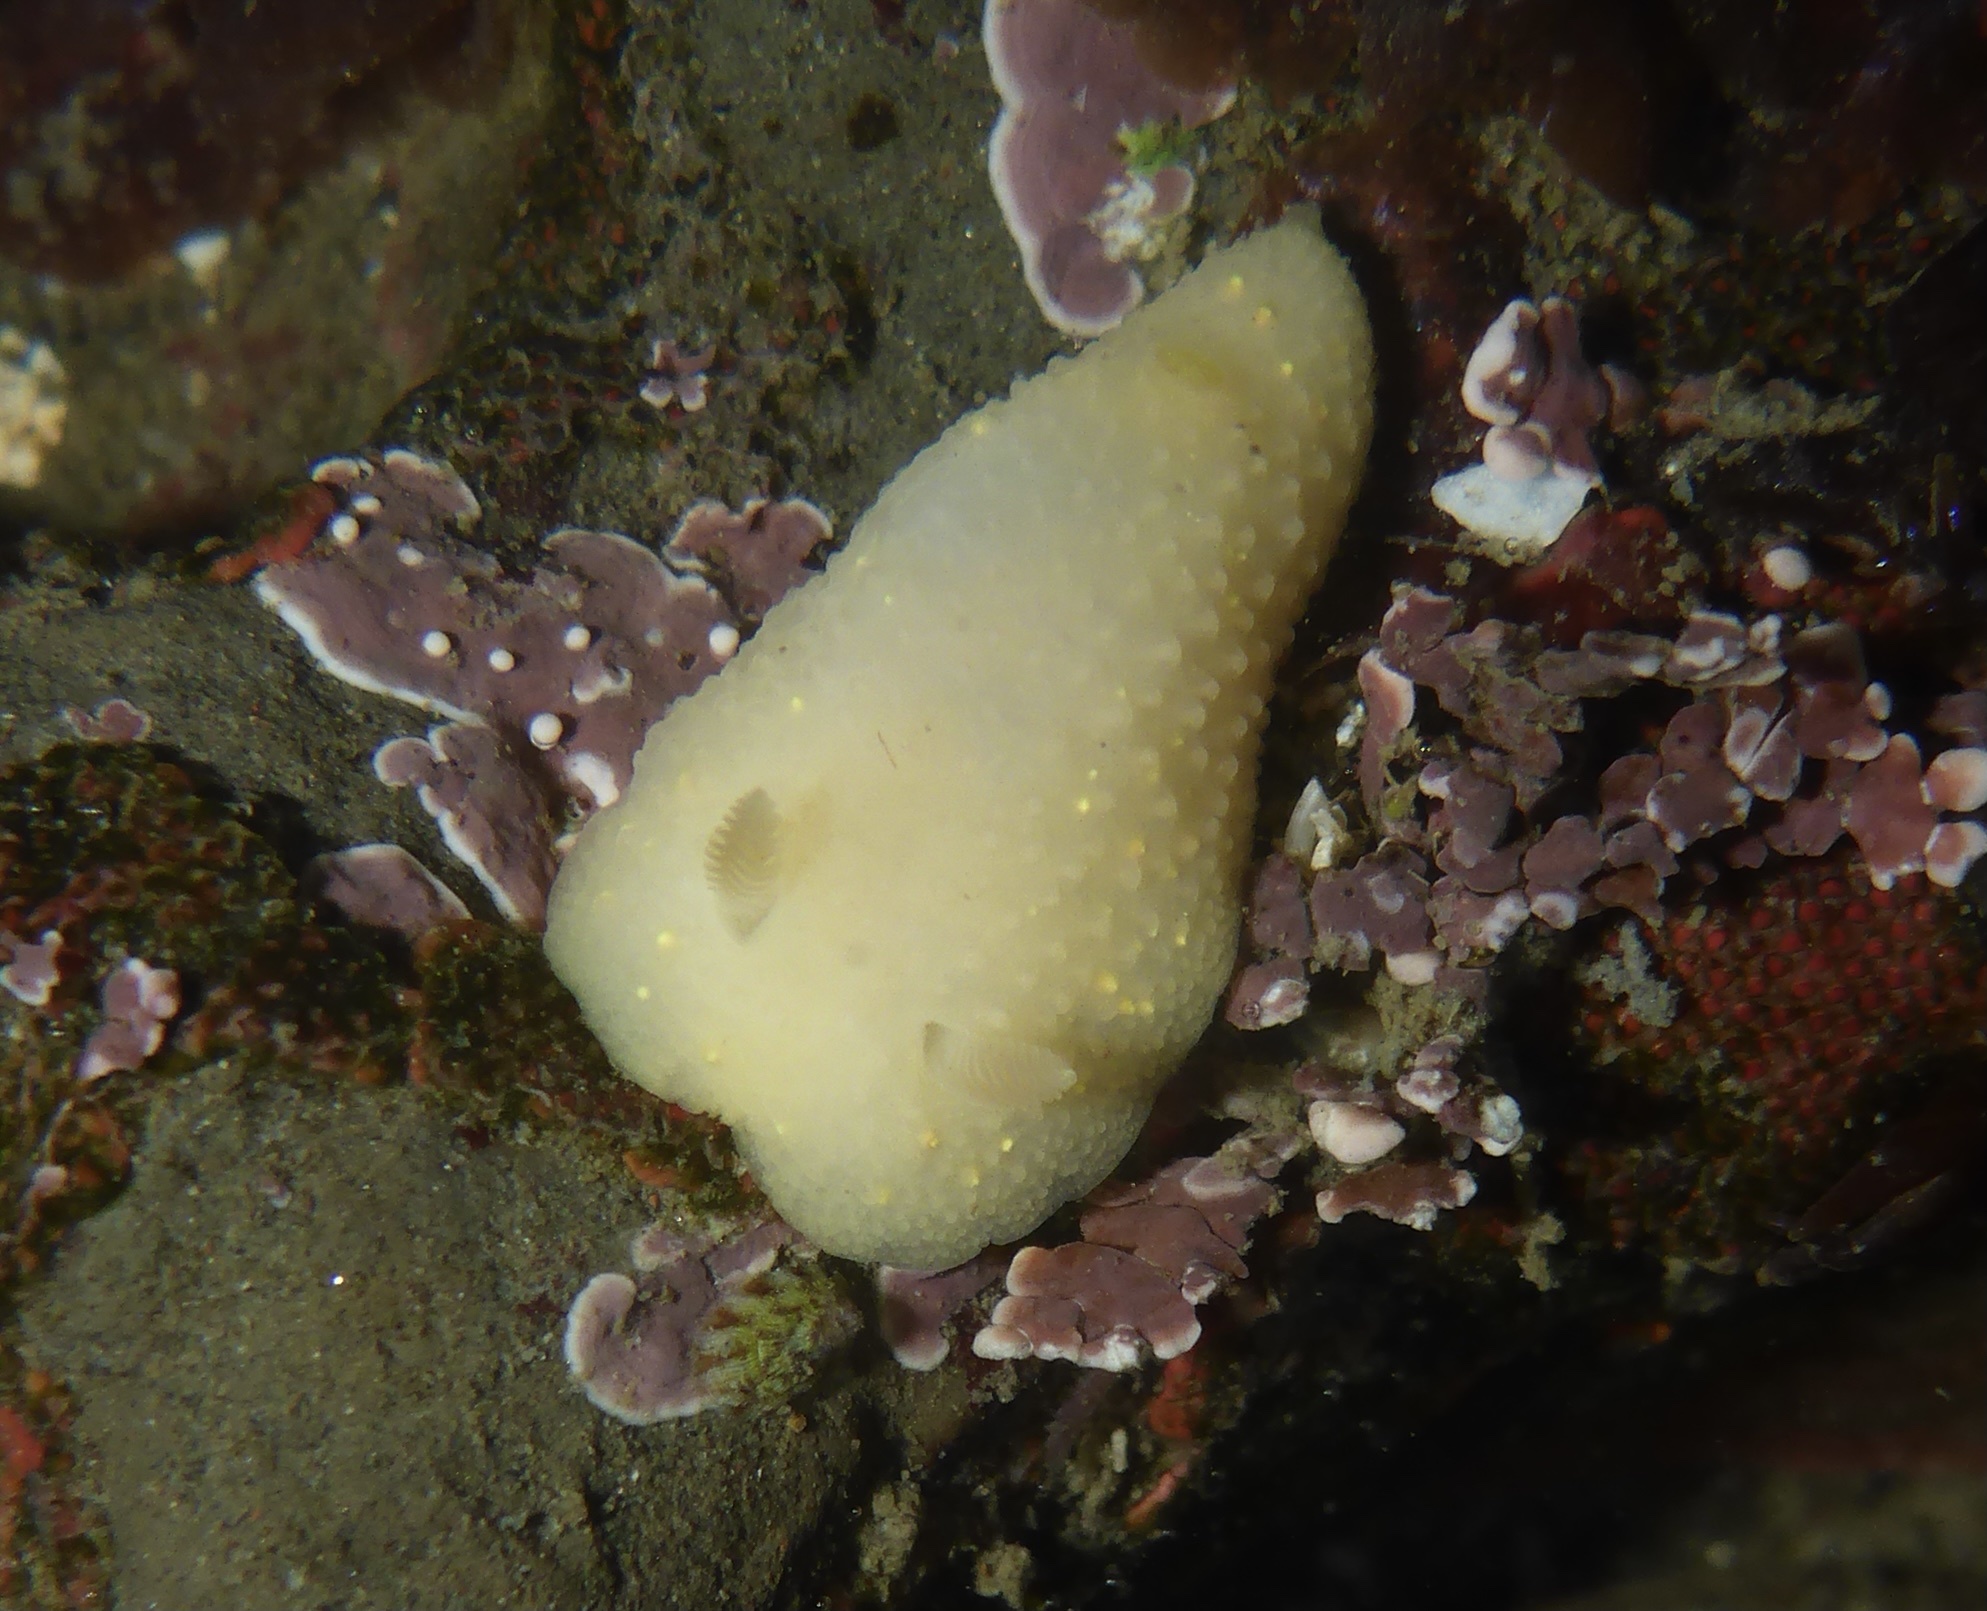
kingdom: Animalia
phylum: Mollusca
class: Gastropoda
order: Nudibranchia
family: Cadlinidae
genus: Cadlina
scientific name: Cadlina modesta
